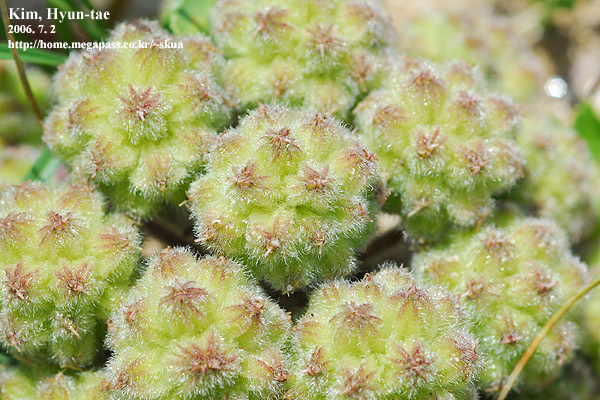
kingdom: Plantae
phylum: Tracheophyta
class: Magnoliopsida
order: Apiales
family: Apiaceae
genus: Glehnia
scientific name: Glehnia littoralis
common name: Beach silvertop
